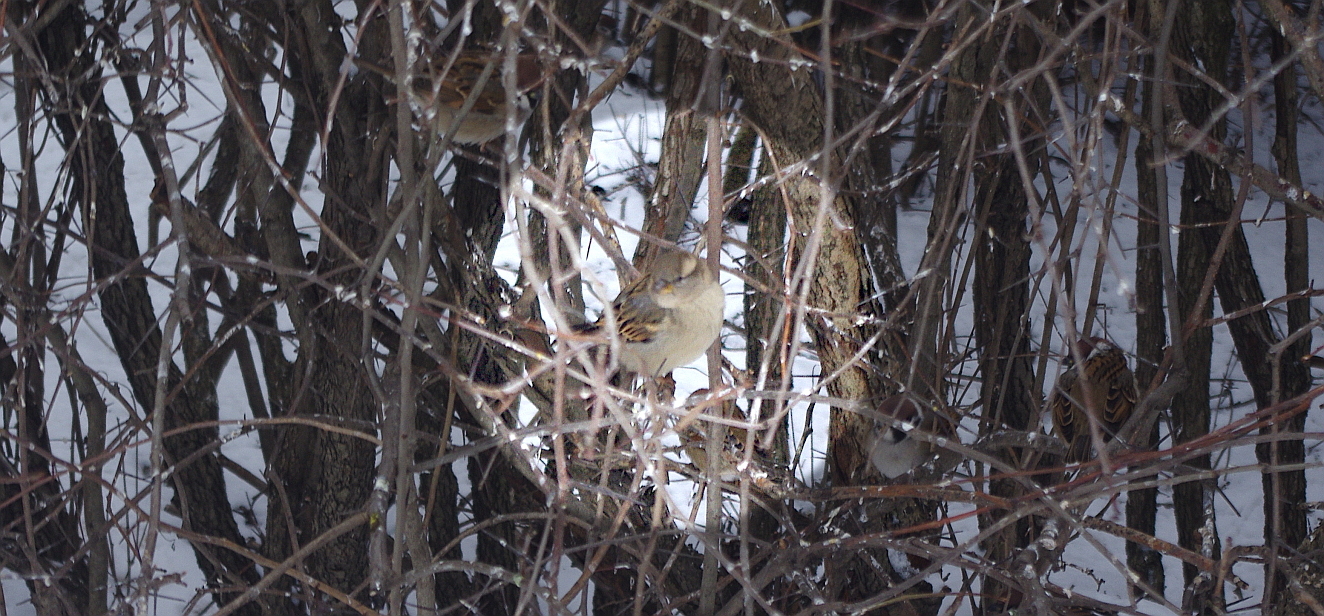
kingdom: Animalia
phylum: Chordata
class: Aves
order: Passeriformes
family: Passeridae
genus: Passer
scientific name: Passer domesticus
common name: House sparrow
